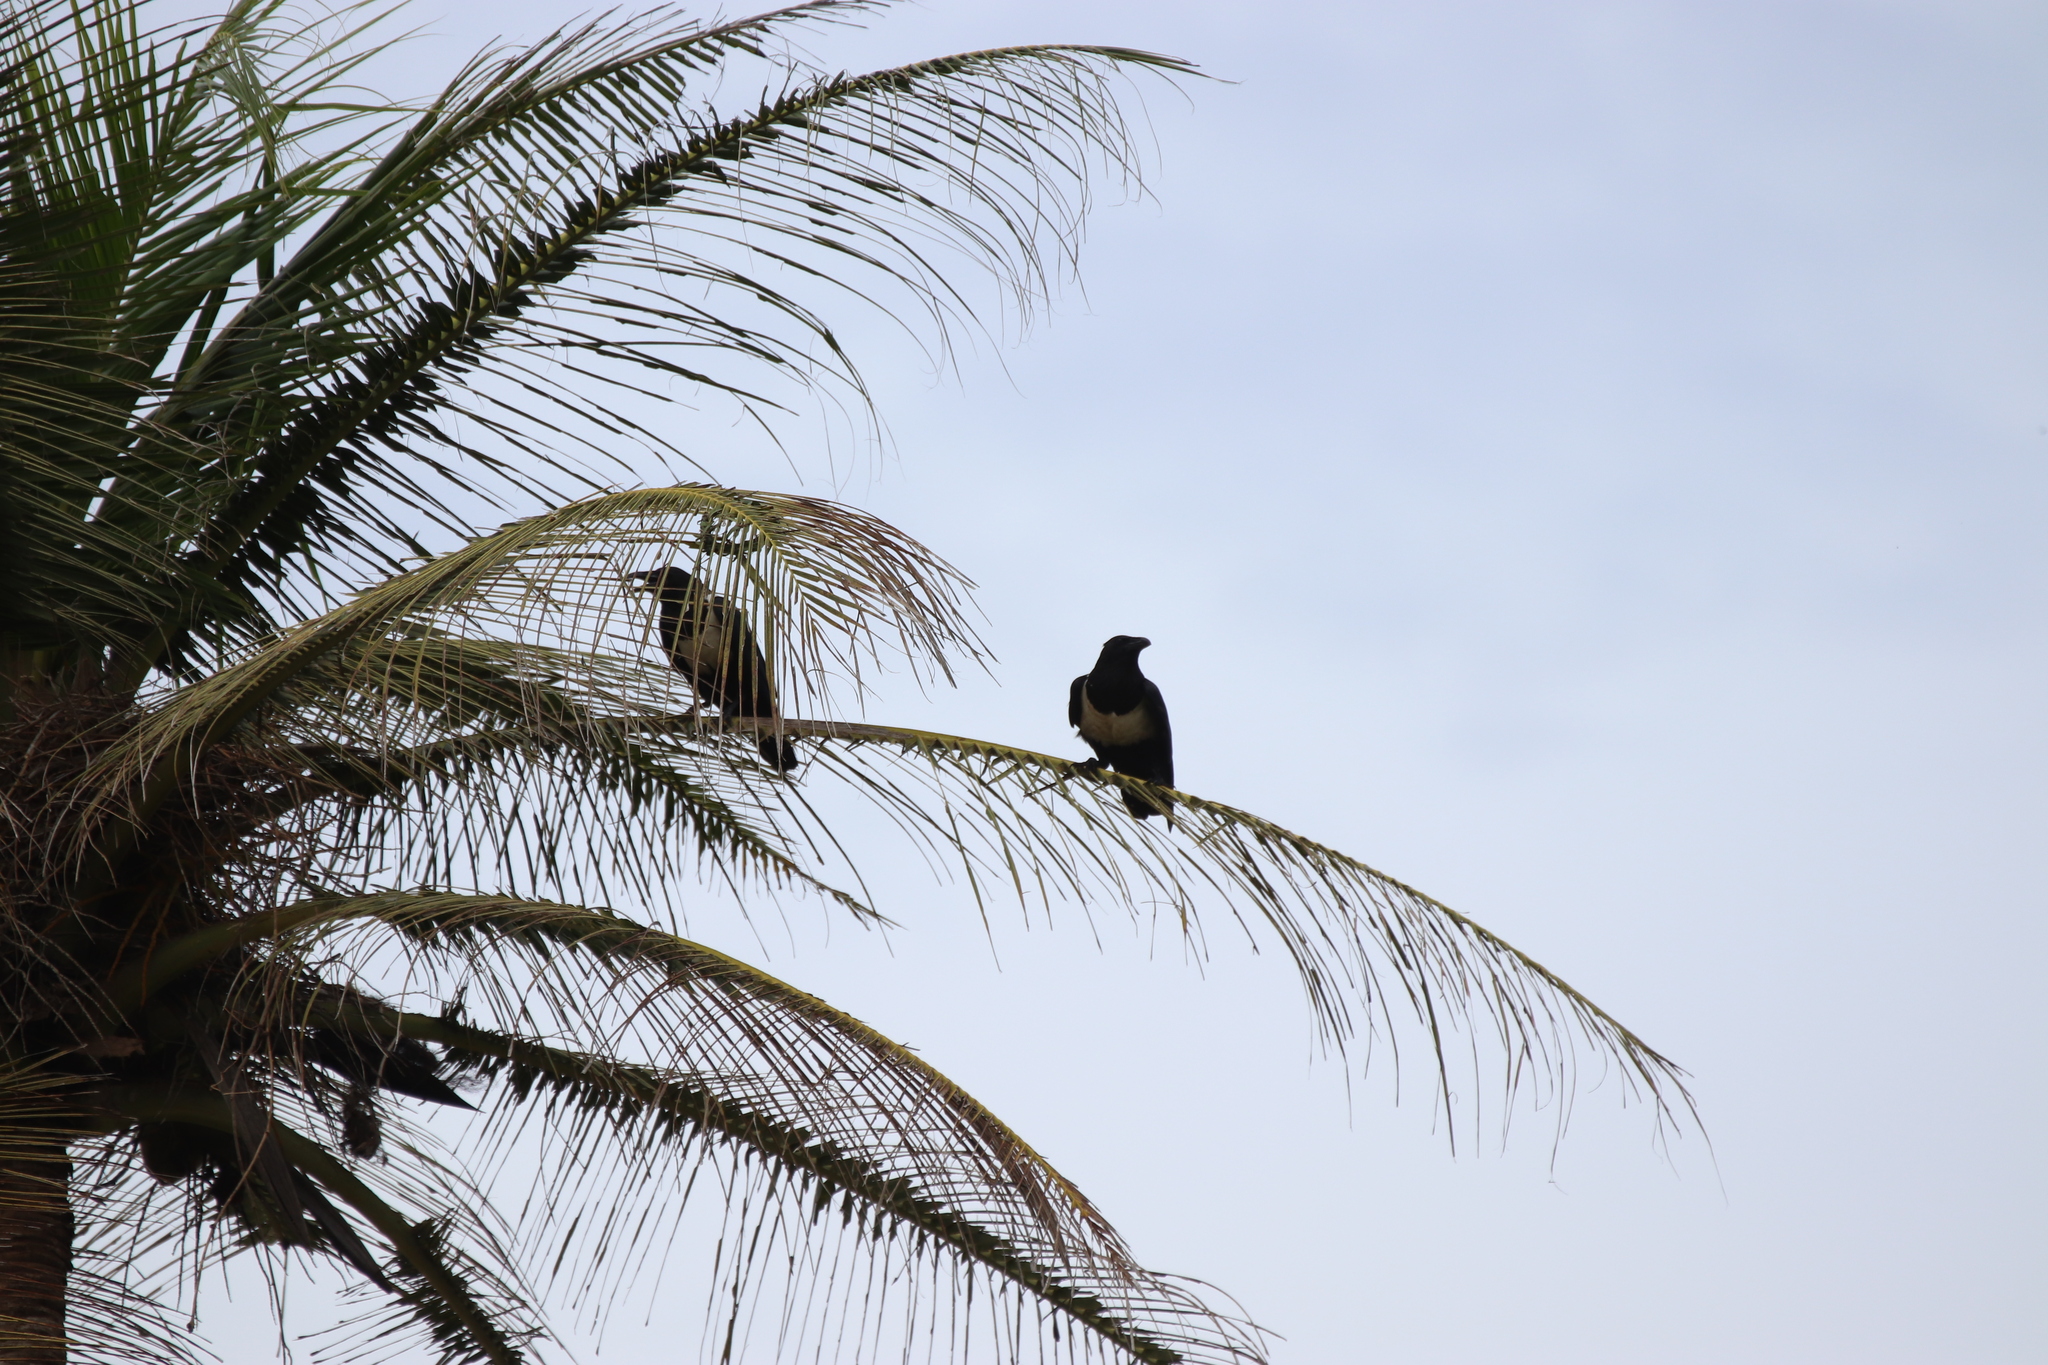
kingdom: Animalia
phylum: Chordata
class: Aves
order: Passeriformes
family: Corvidae
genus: Corvus
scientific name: Corvus albus
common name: Pied crow
